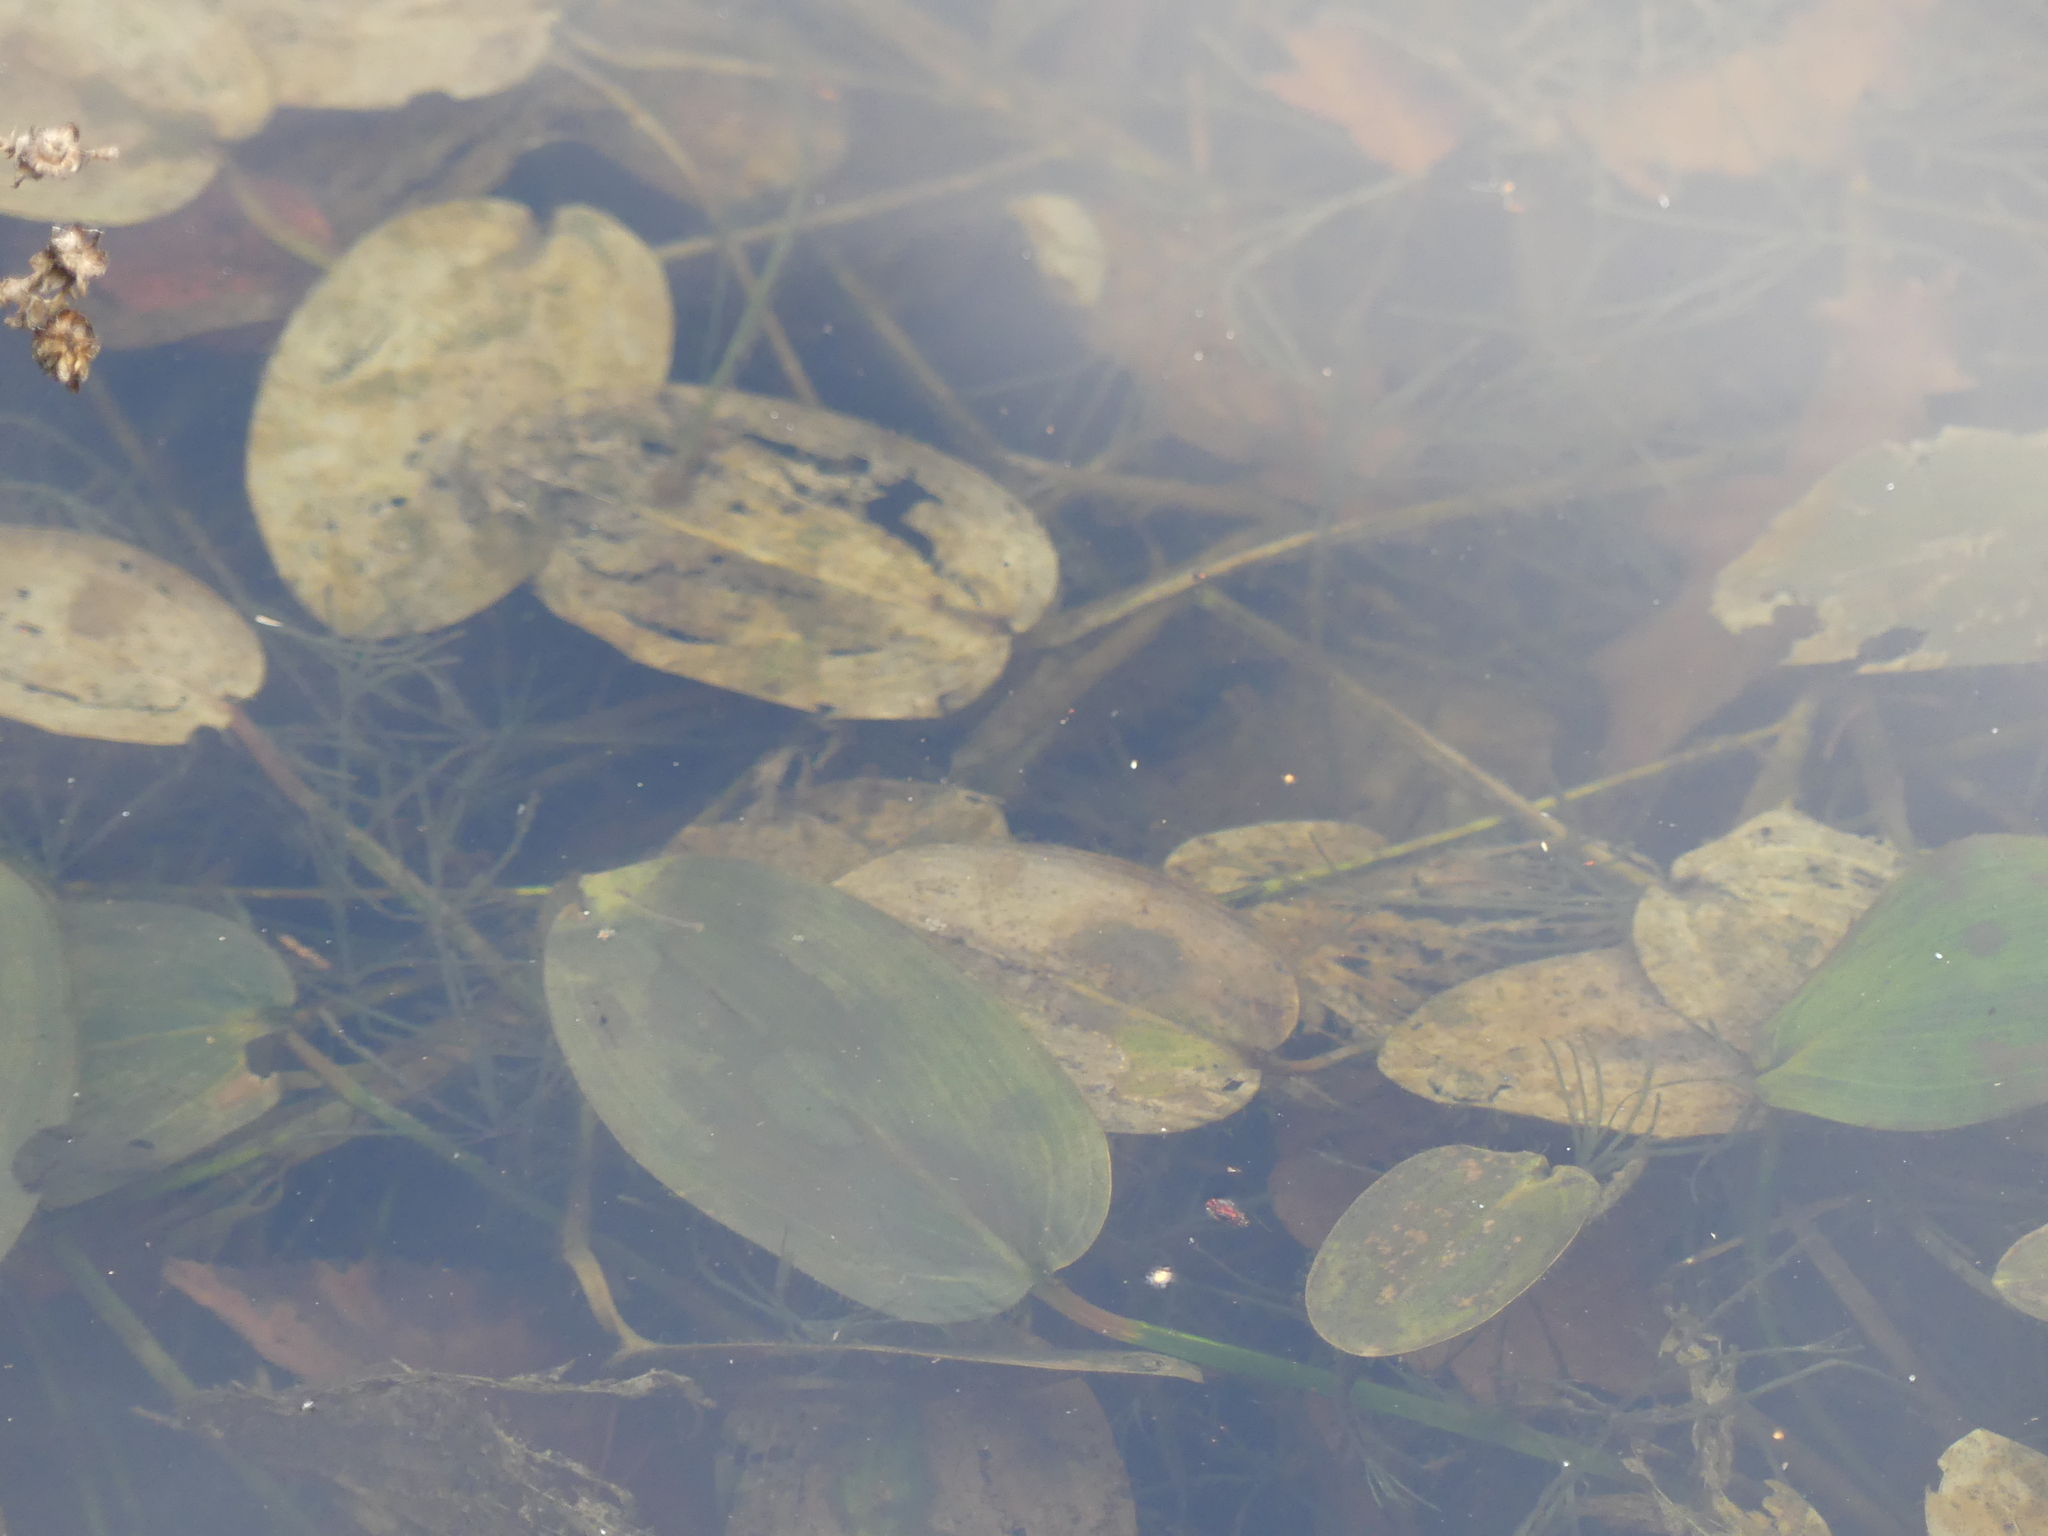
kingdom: Plantae
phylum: Tracheophyta
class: Liliopsida
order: Alismatales
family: Potamogetonaceae
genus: Potamogeton
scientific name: Potamogeton natans
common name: Broad-leaved pondweed
